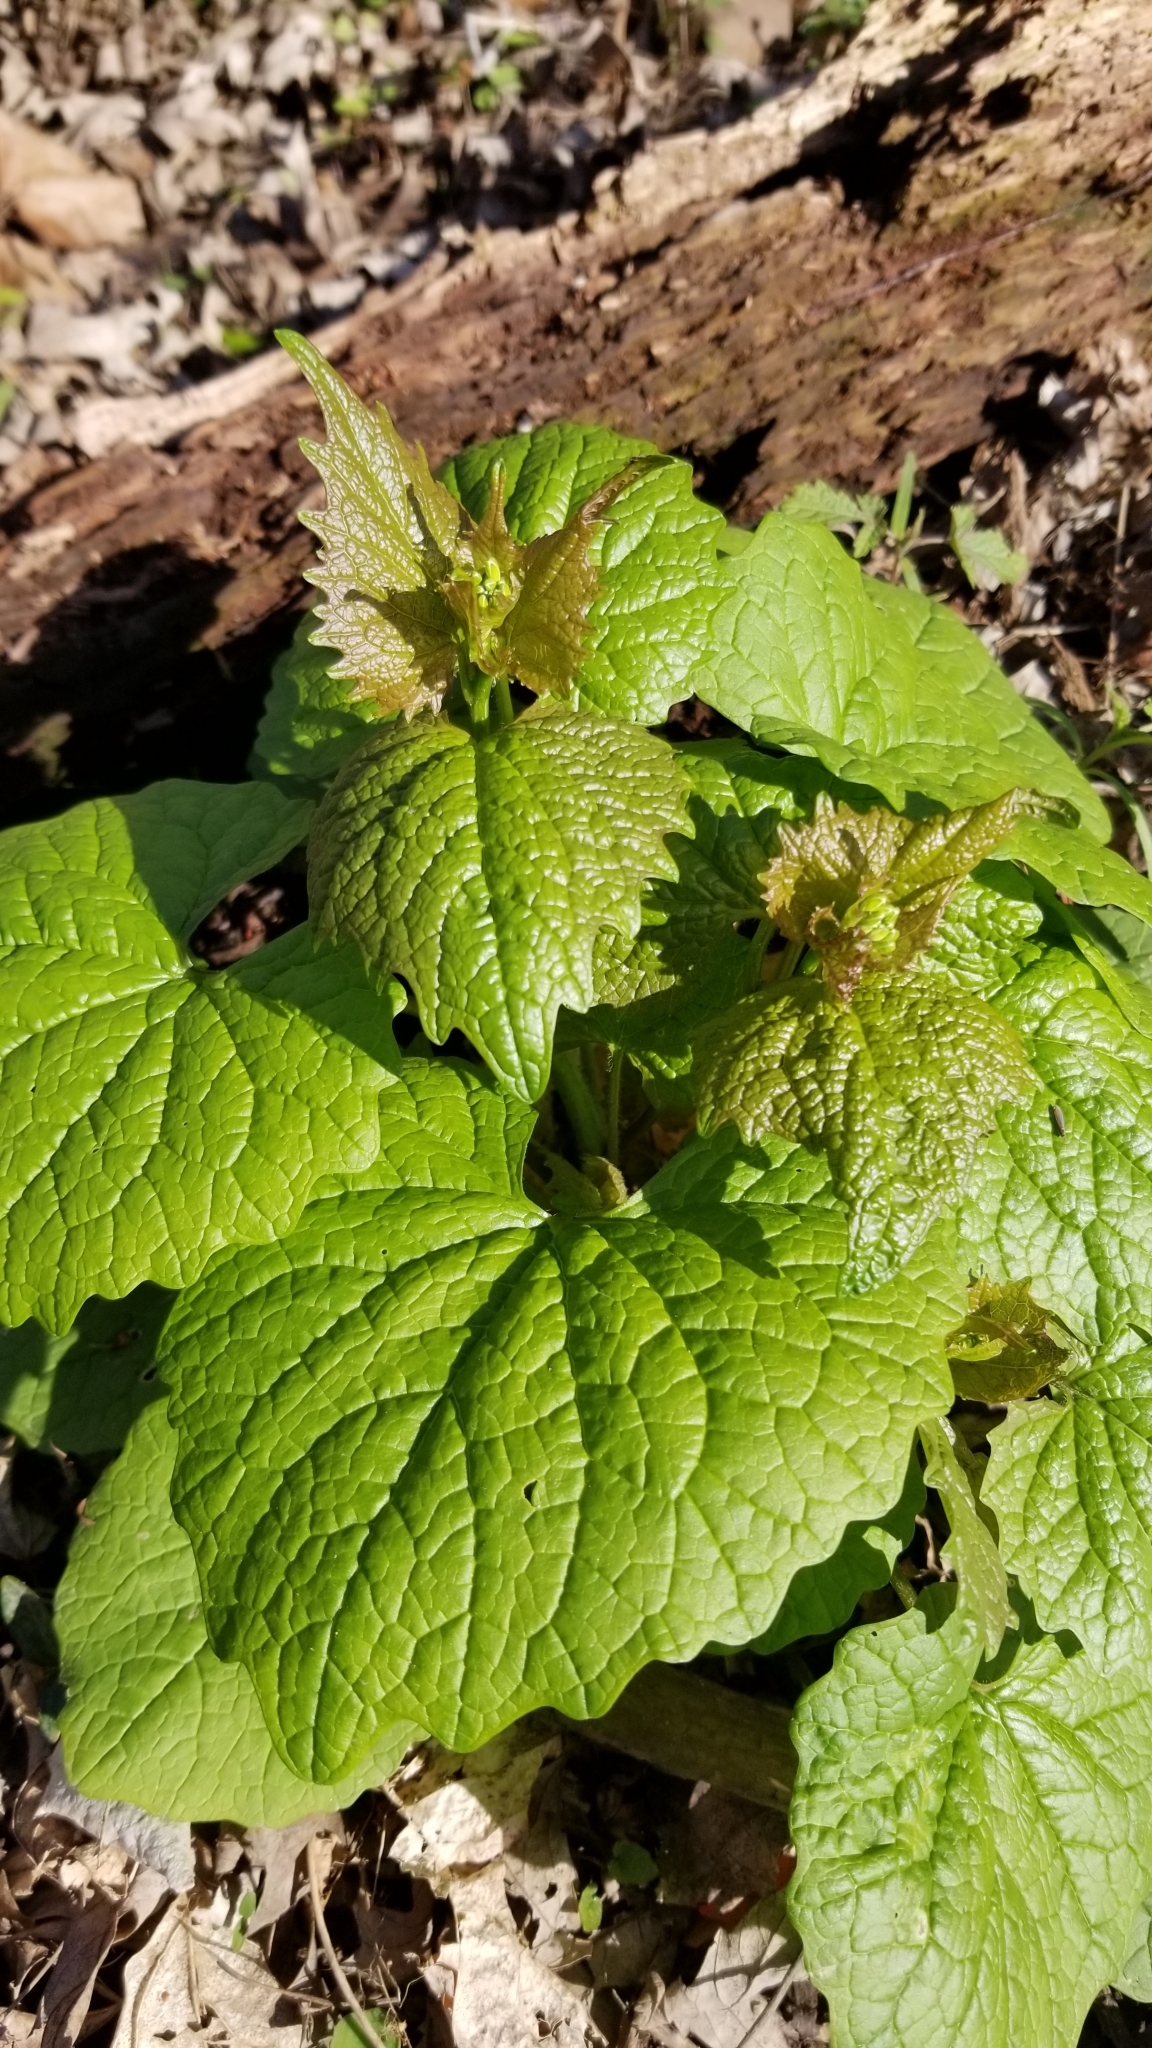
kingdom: Plantae
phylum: Tracheophyta
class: Magnoliopsida
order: Brassicales
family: Brassicaceae
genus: Alliaria
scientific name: Alliaria petiolata
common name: Garlic mustard
